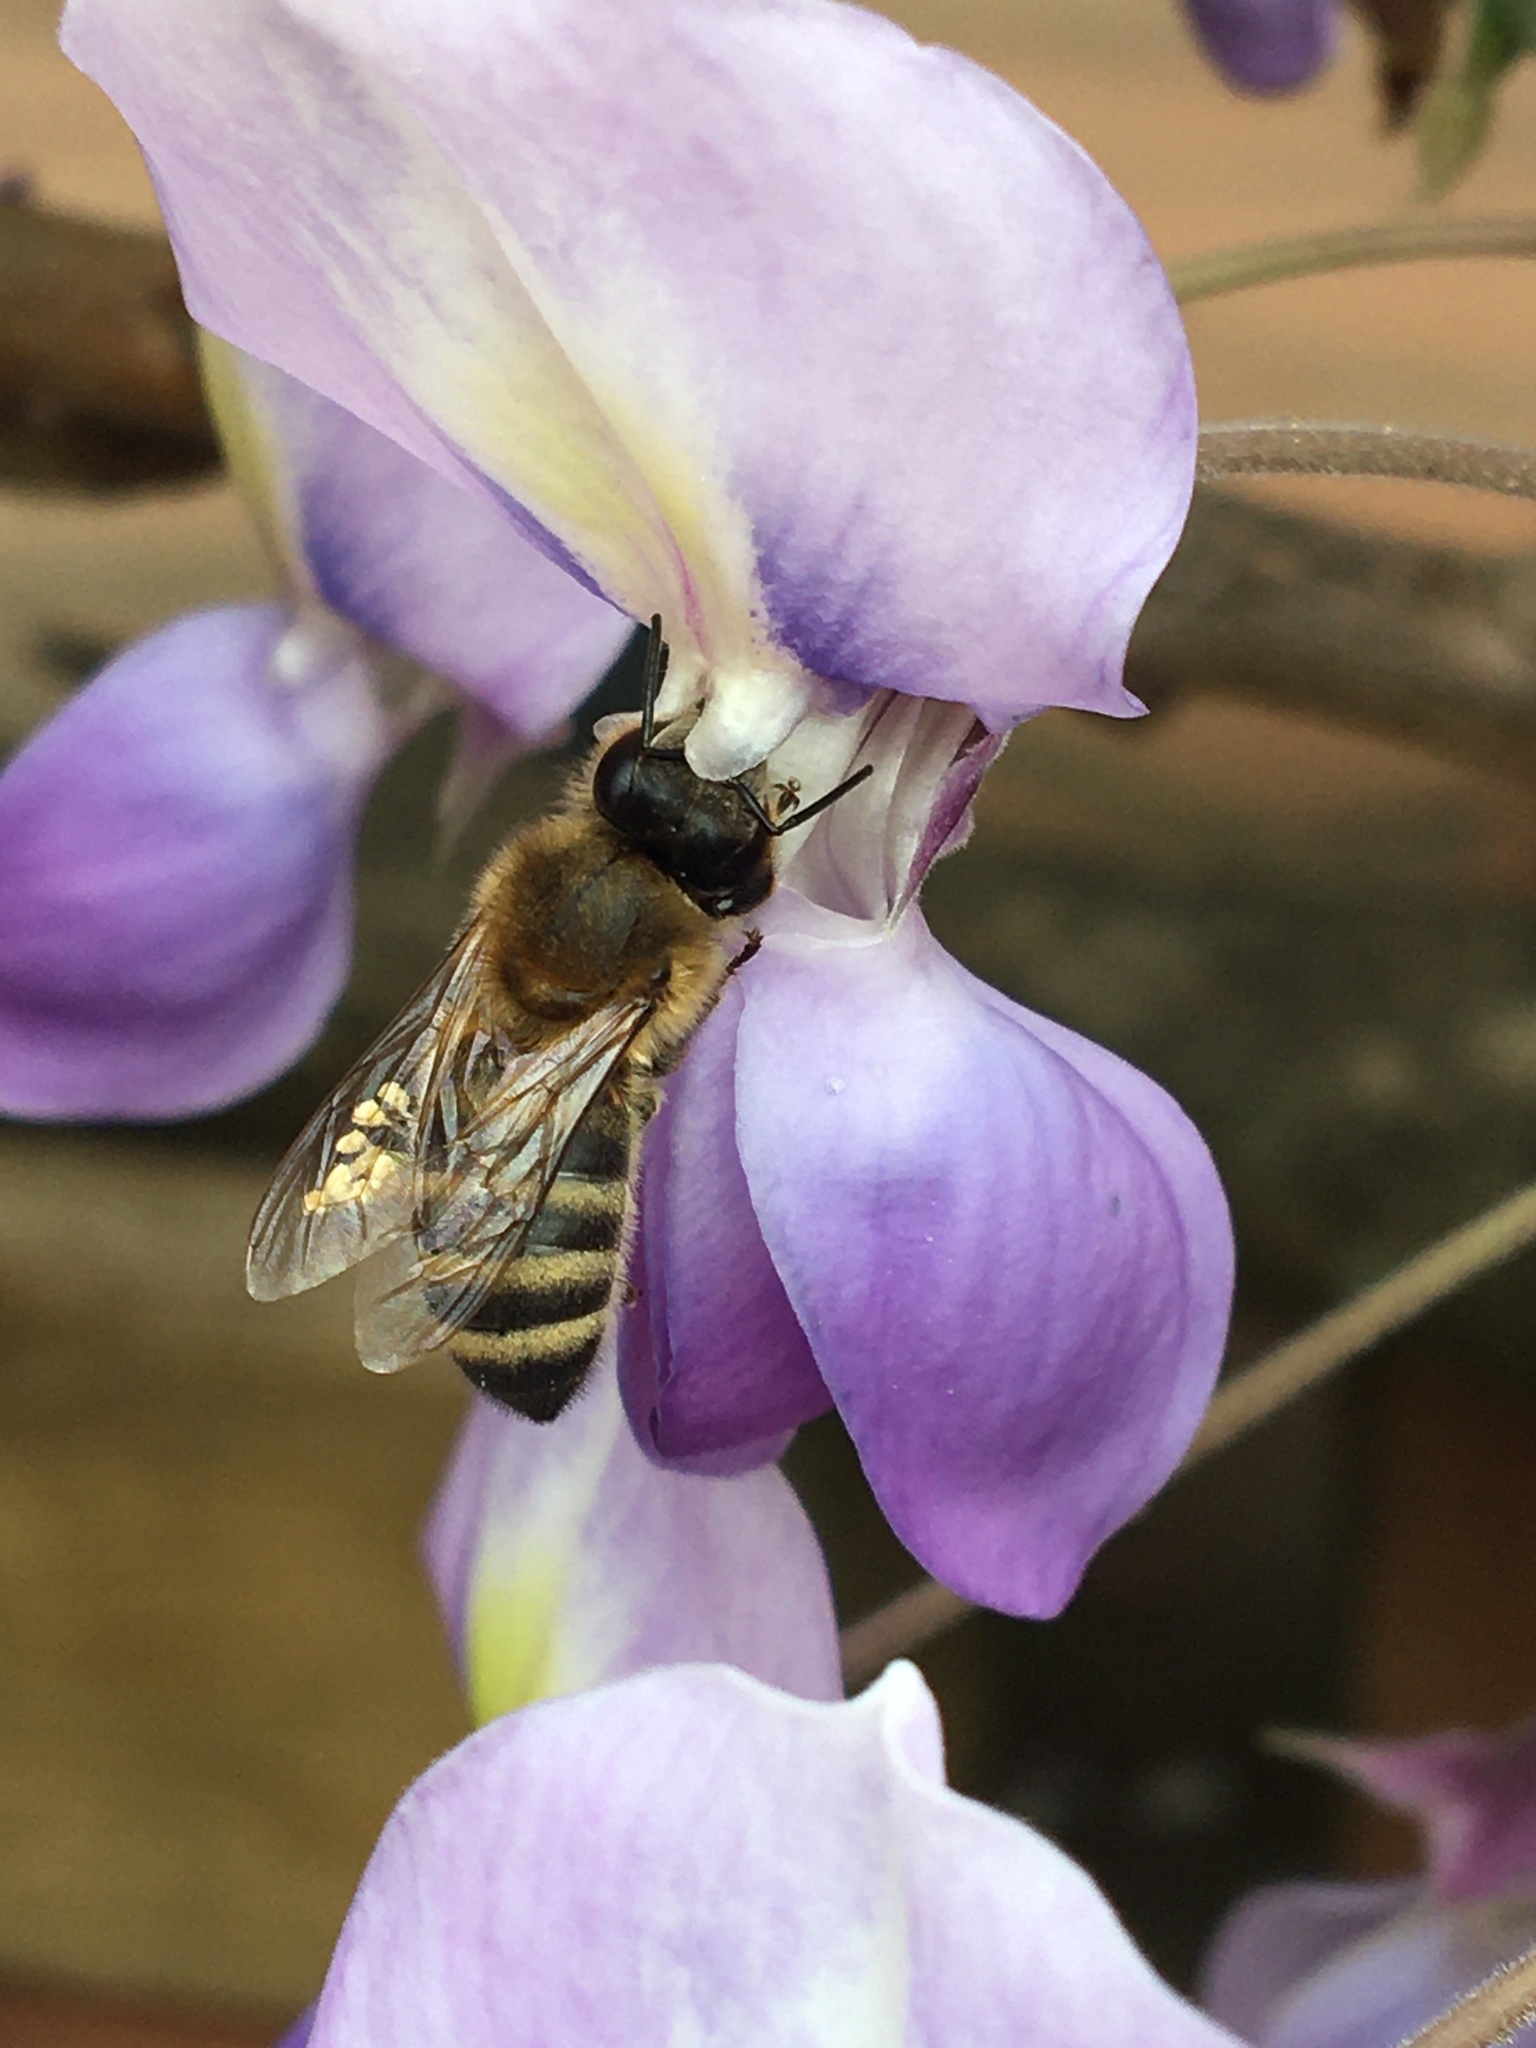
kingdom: Animalia
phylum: Arthropoda
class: Insecta
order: Hymenoptera
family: Apidae
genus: Apis
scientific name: Apis mellifera
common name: Honey bee
